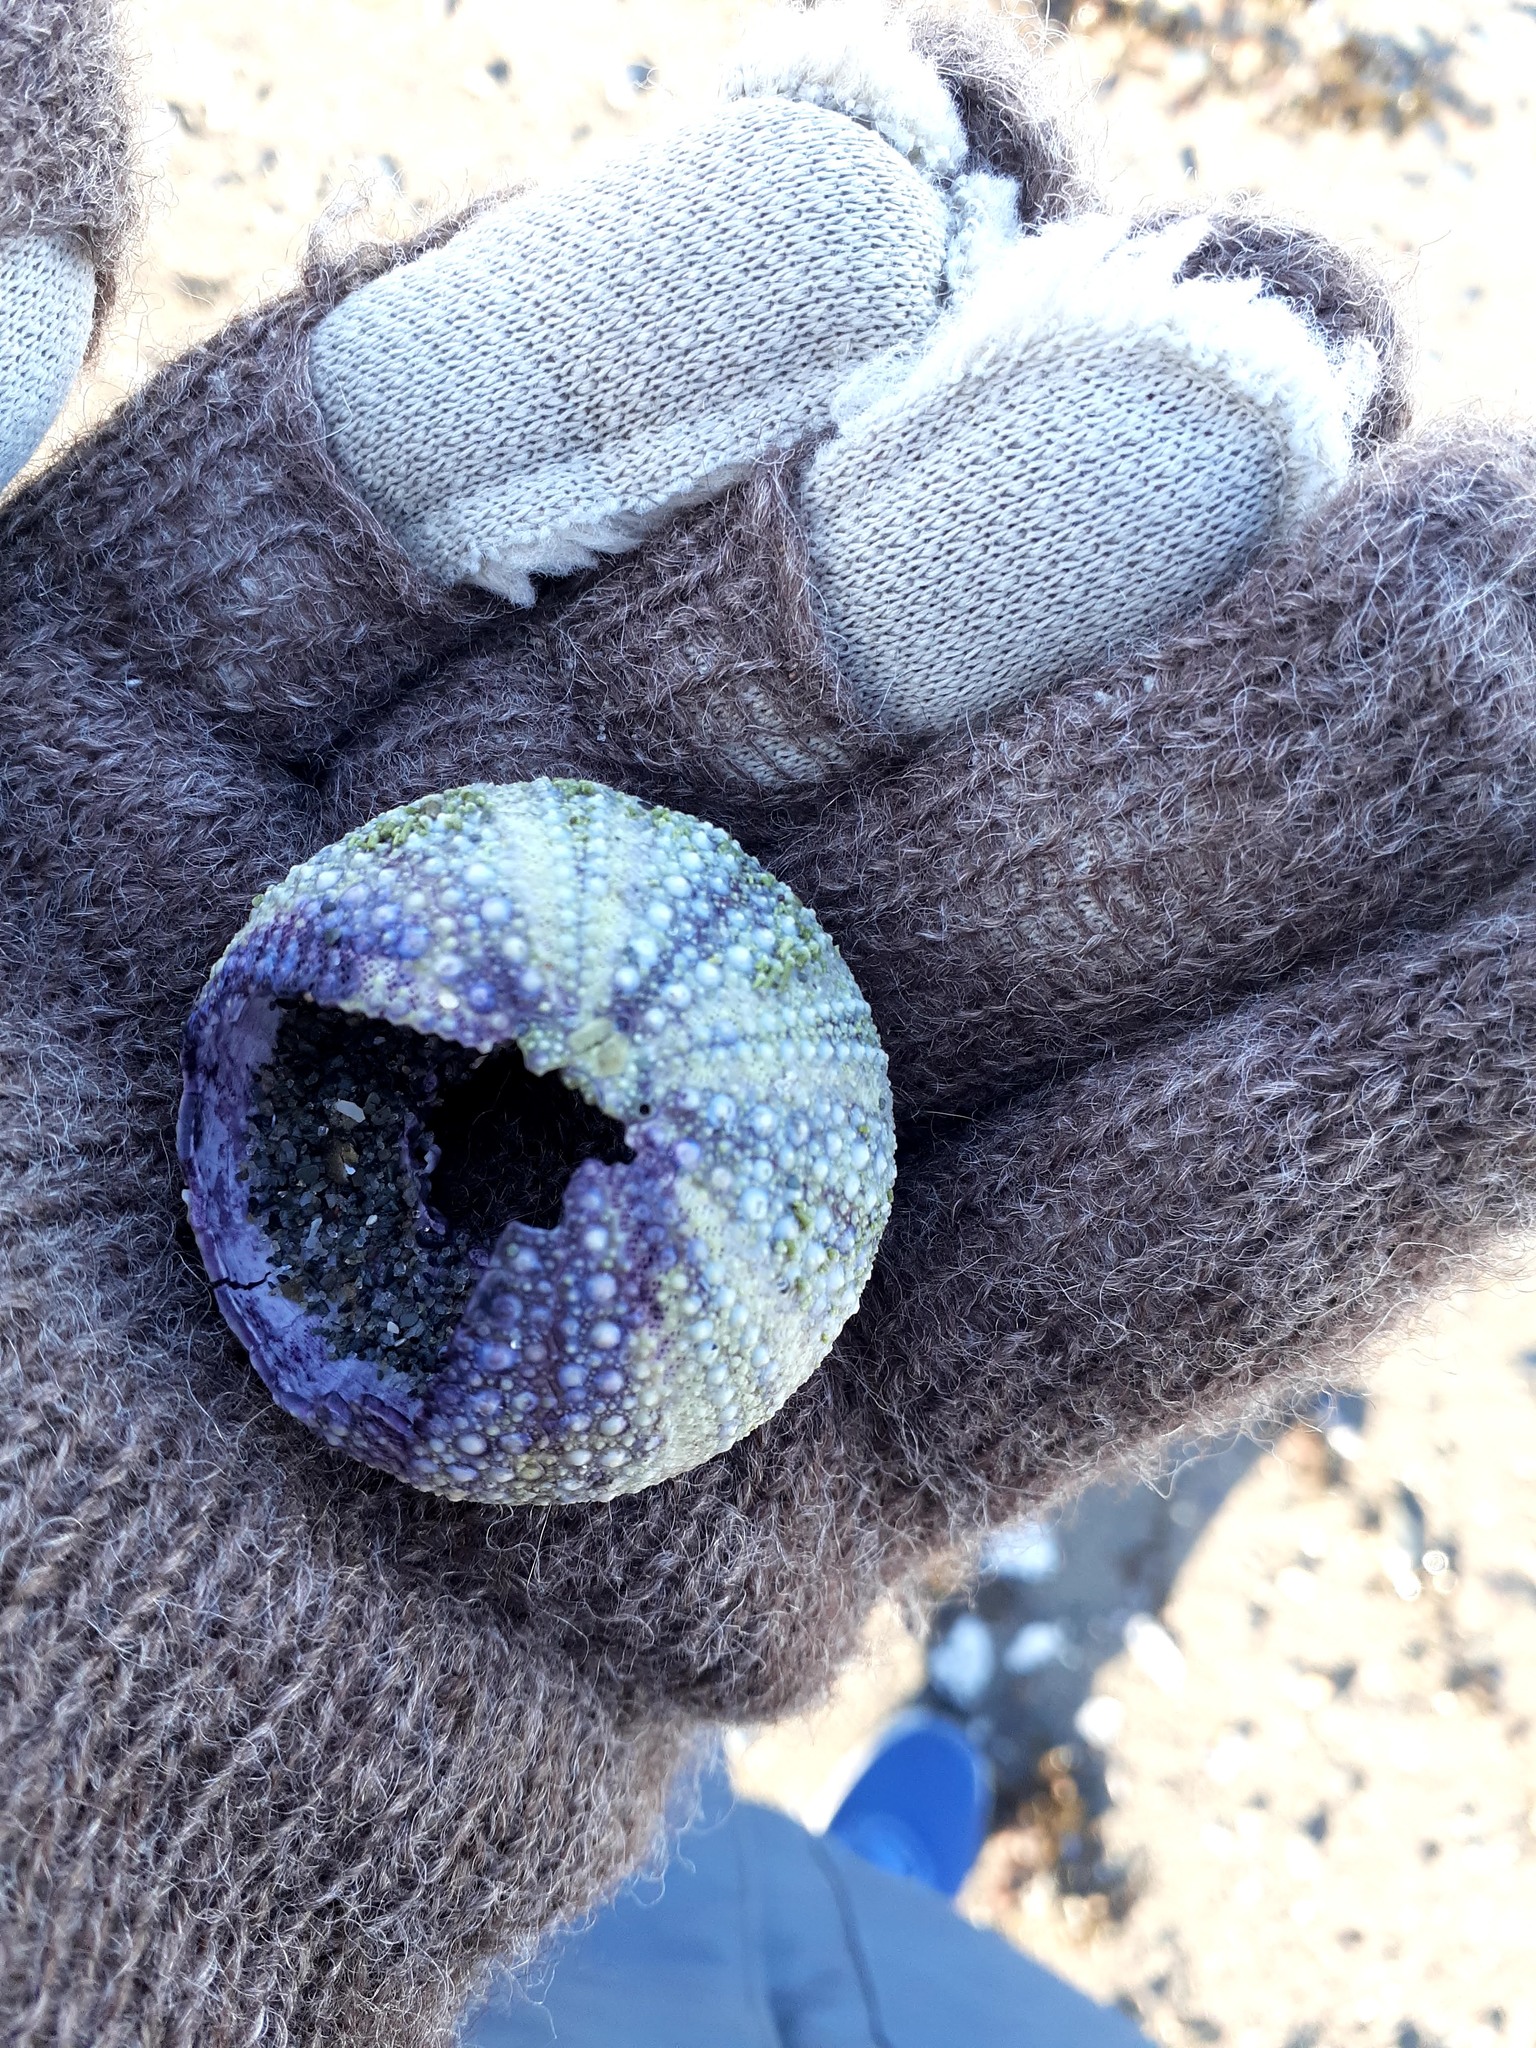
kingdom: Animalia
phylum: Echinodermata
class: Echinoidea
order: Camarodonta
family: Strongylocentrotidae
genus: Strongylocentrotus
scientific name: Strongylocentrotus droebachiensis
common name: Northern sea urchin
